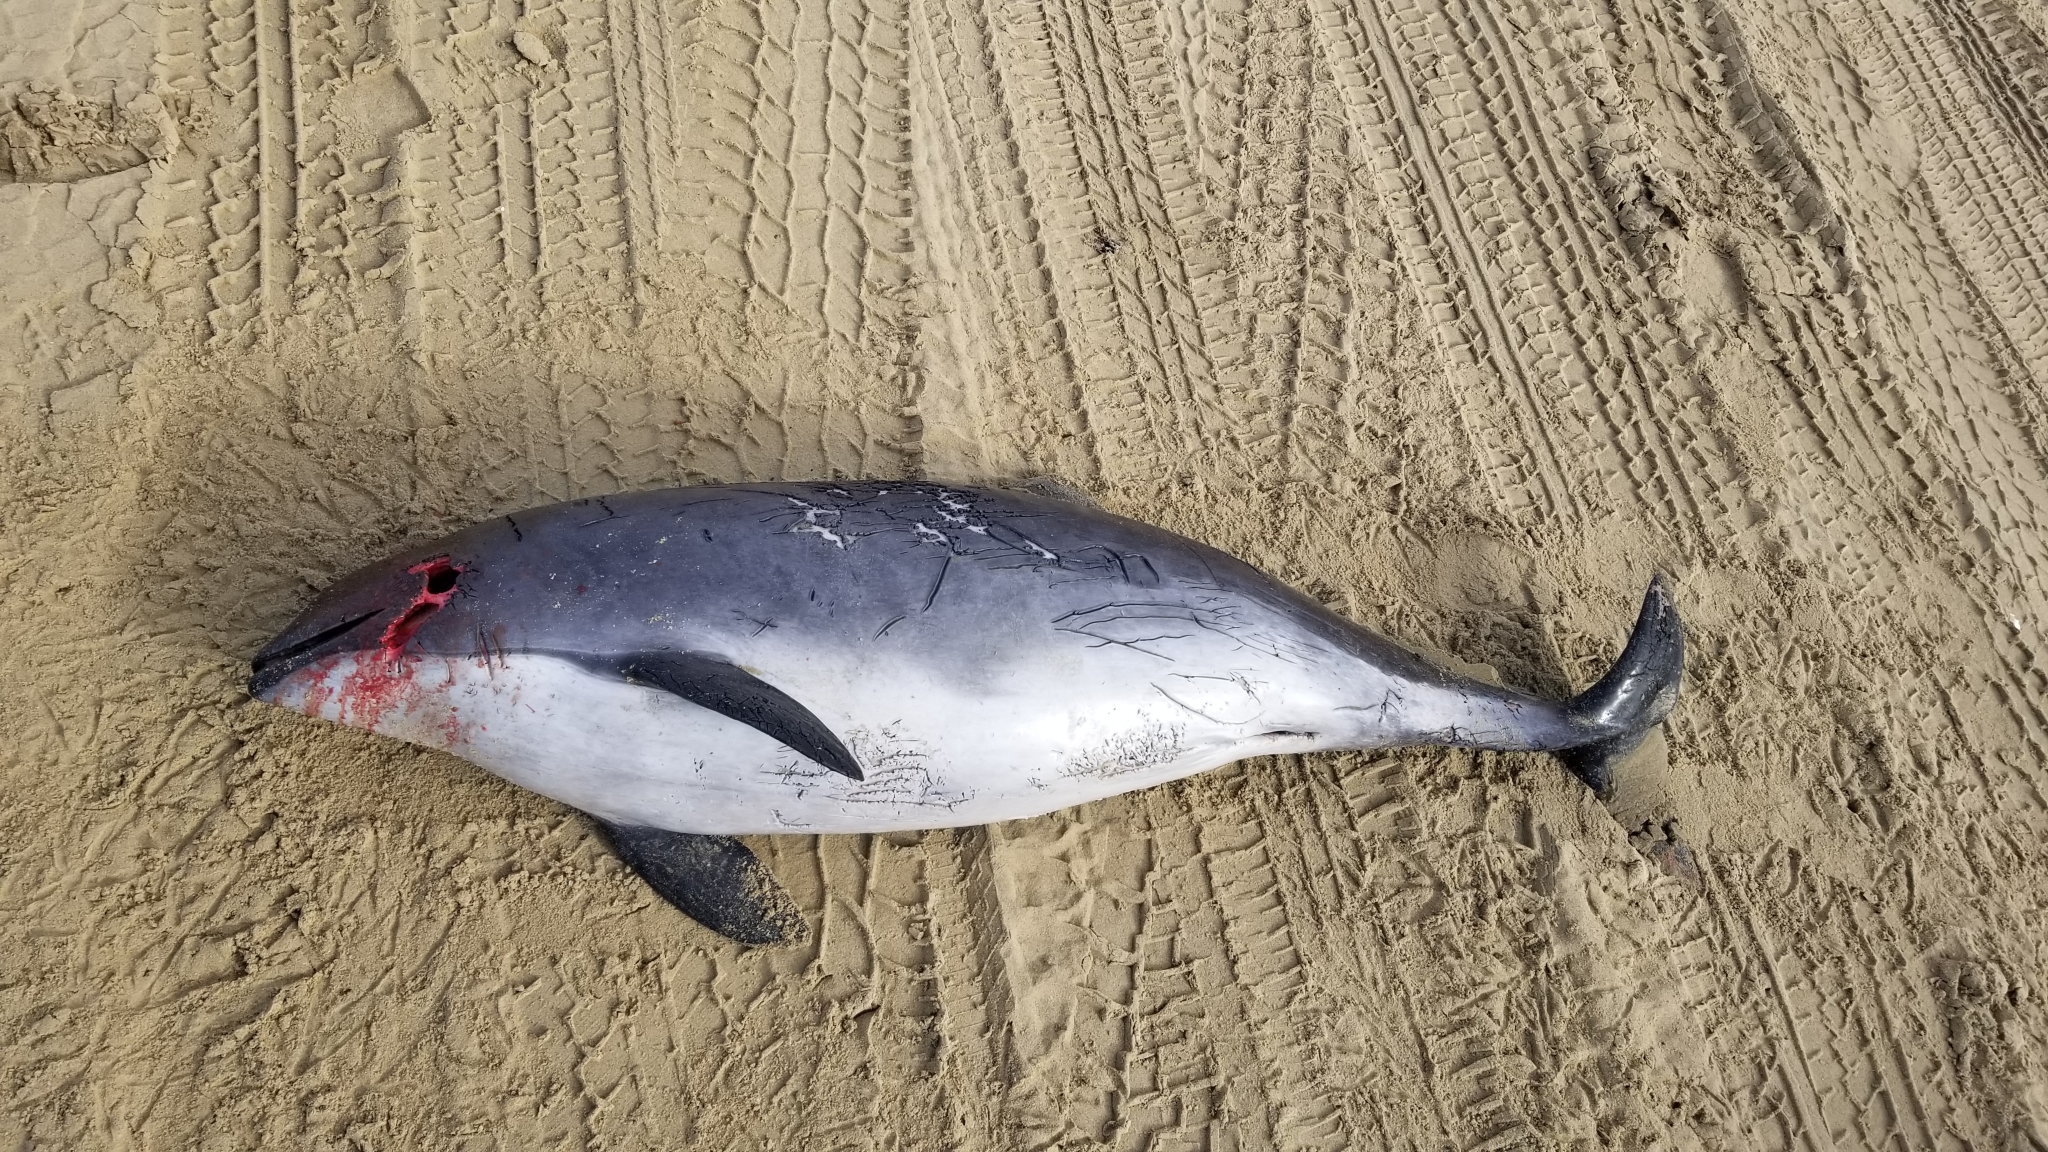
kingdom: Animalia
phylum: Chordata
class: Mammalia
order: Cetacea
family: Phocoenidae
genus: Phocoena
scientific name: Phocoena phocoena
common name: Harbor porpoise
